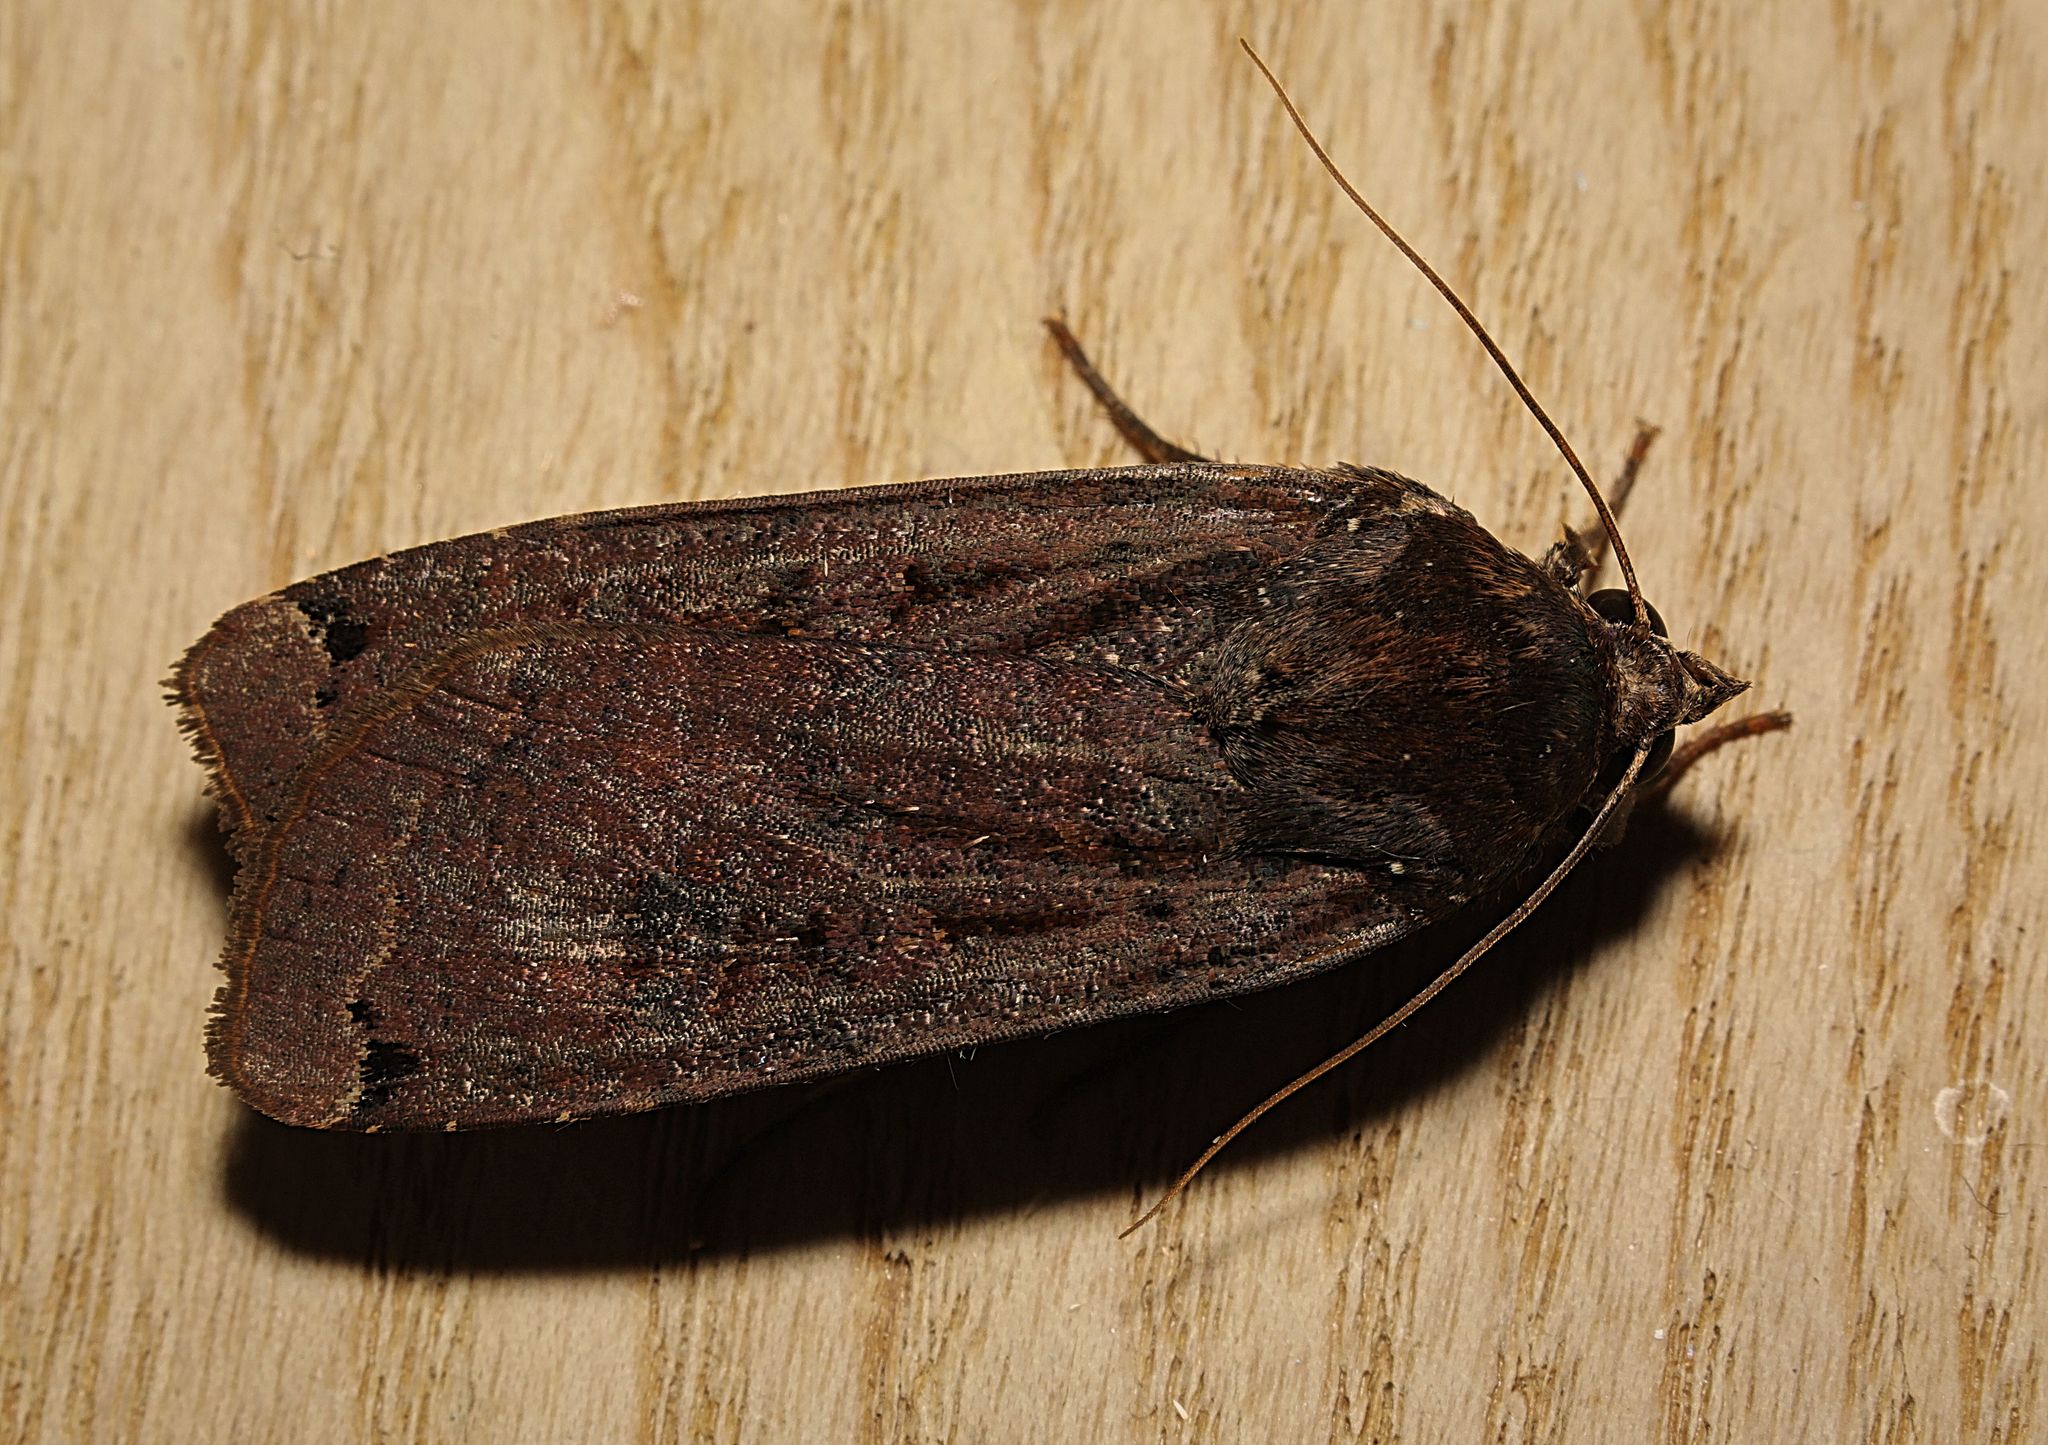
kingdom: Animalia
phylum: Arthropoda
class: Insecta
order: Lepidoptera
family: Noctuidae
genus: Noctua
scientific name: Noctua pronuba
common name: Large yellow underwing
